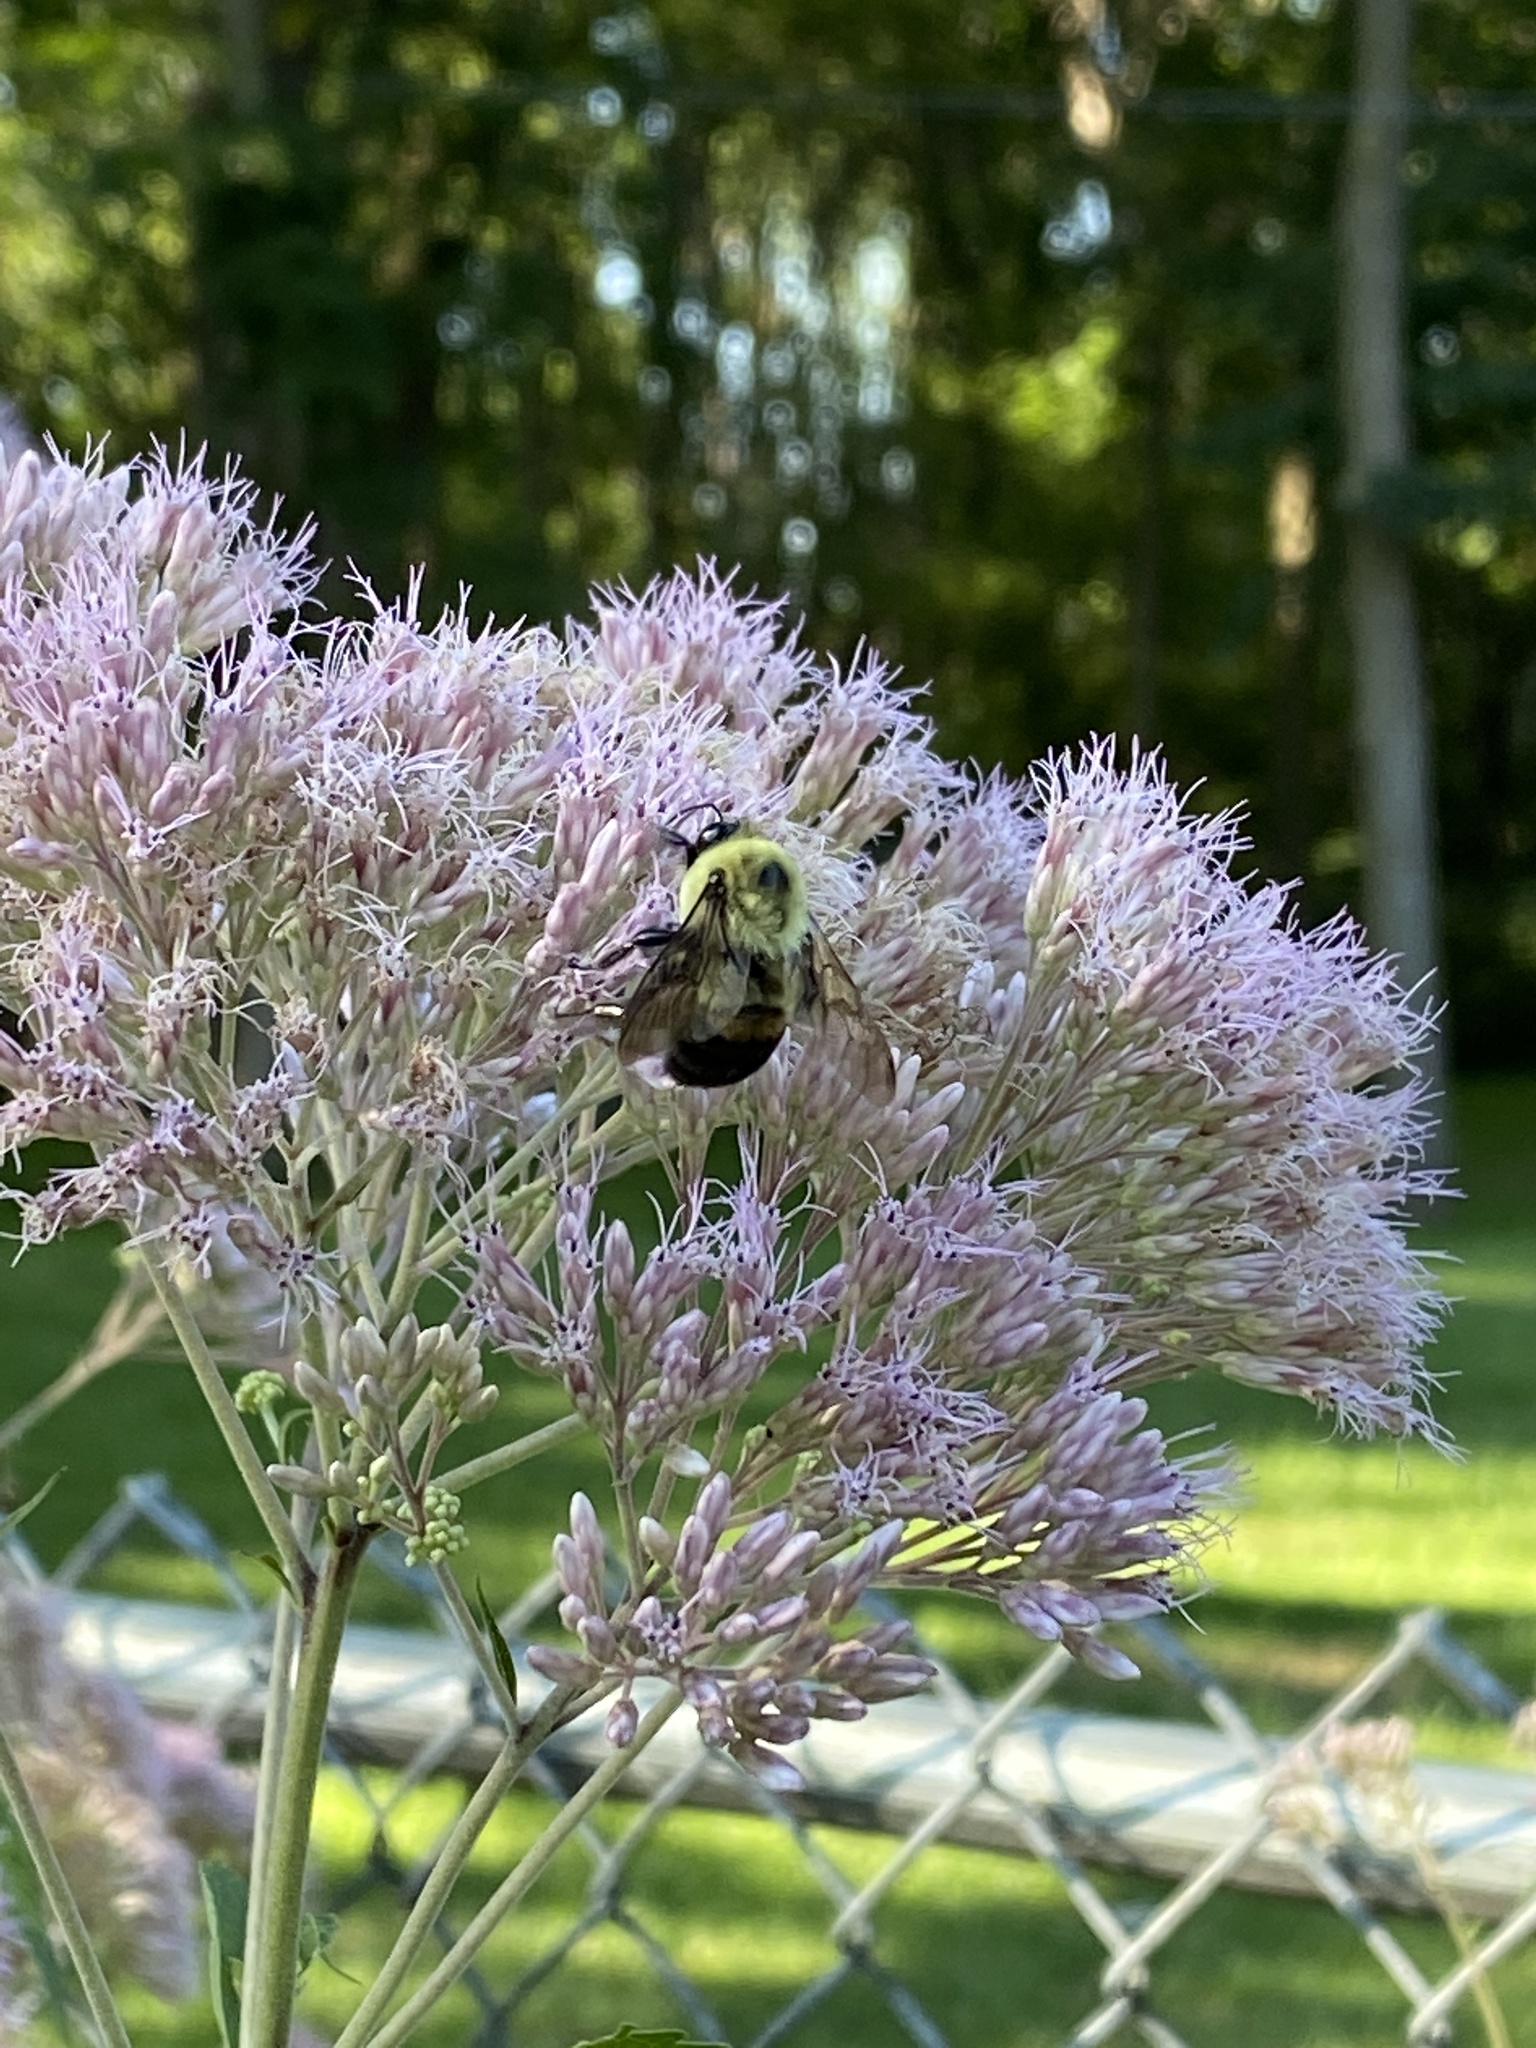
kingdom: Animalia
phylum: Arthropoda
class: Insecta
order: Hymenoptera
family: Apidae
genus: Bombus
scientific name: Bombus griseocollis
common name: Brown-belted bumble bee
